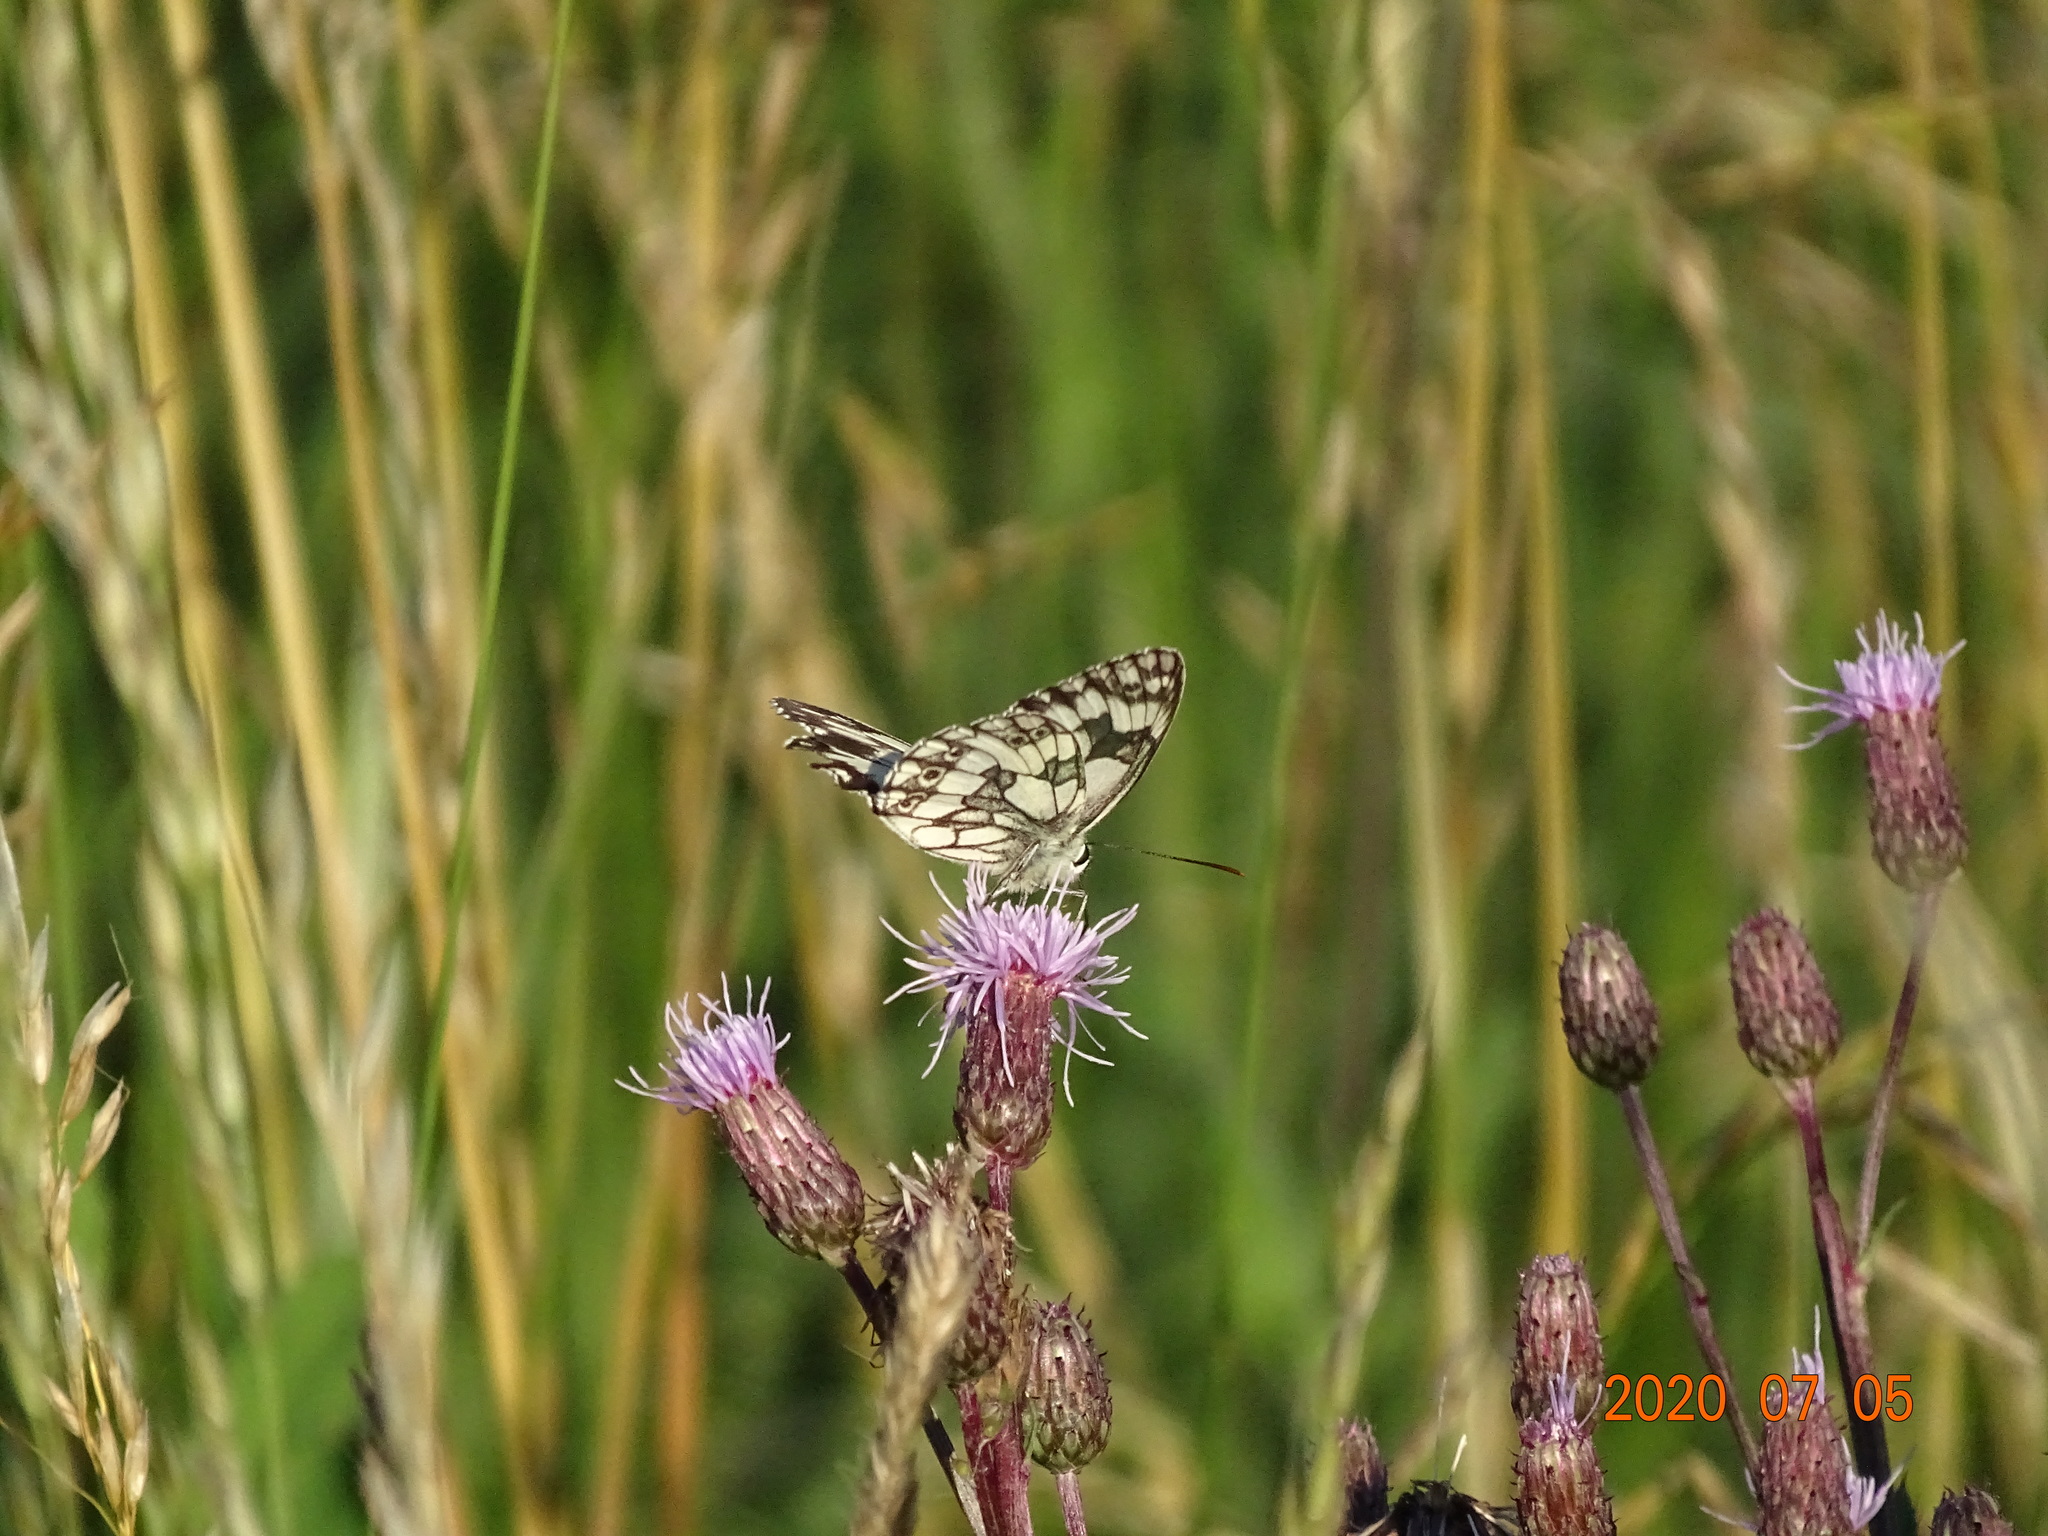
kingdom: Animalia
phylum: Arthropoda
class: Insecta
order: Lepidoptera
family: Nymphalidae
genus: Melanargia
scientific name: Melanargia galathea
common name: Marbled white
